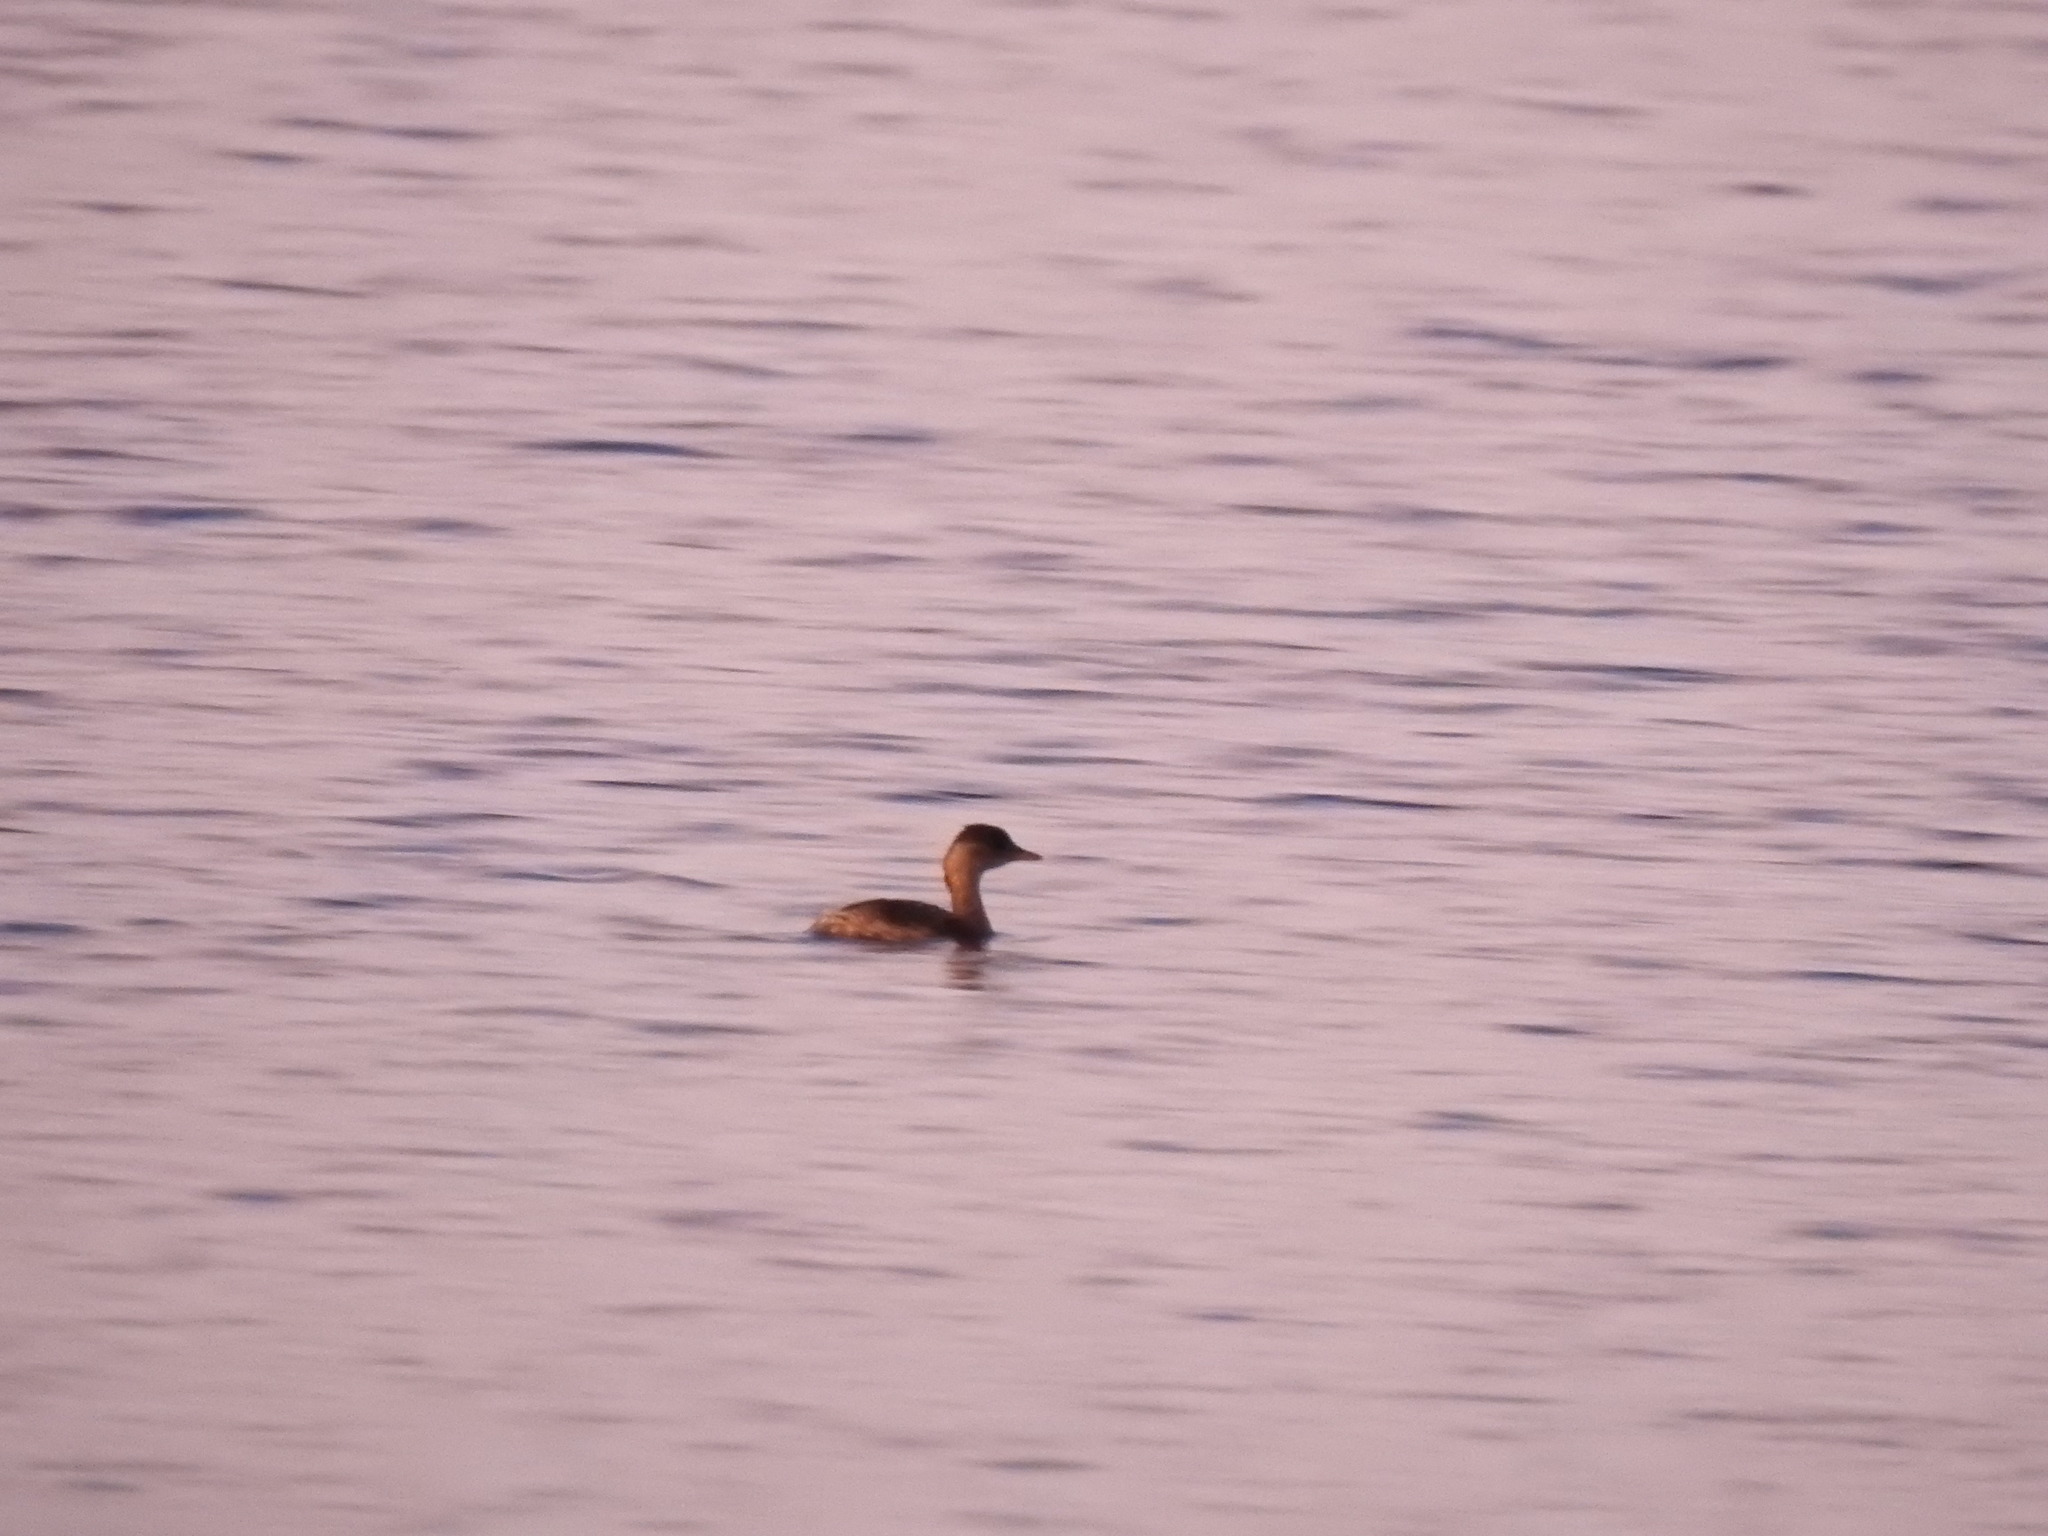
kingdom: Animalia
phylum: Chordata
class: Aves
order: Podicipediformes
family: Podicipedidae
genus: Tachybaptus
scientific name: Tachybaptus ruficollis
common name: Little grebe
